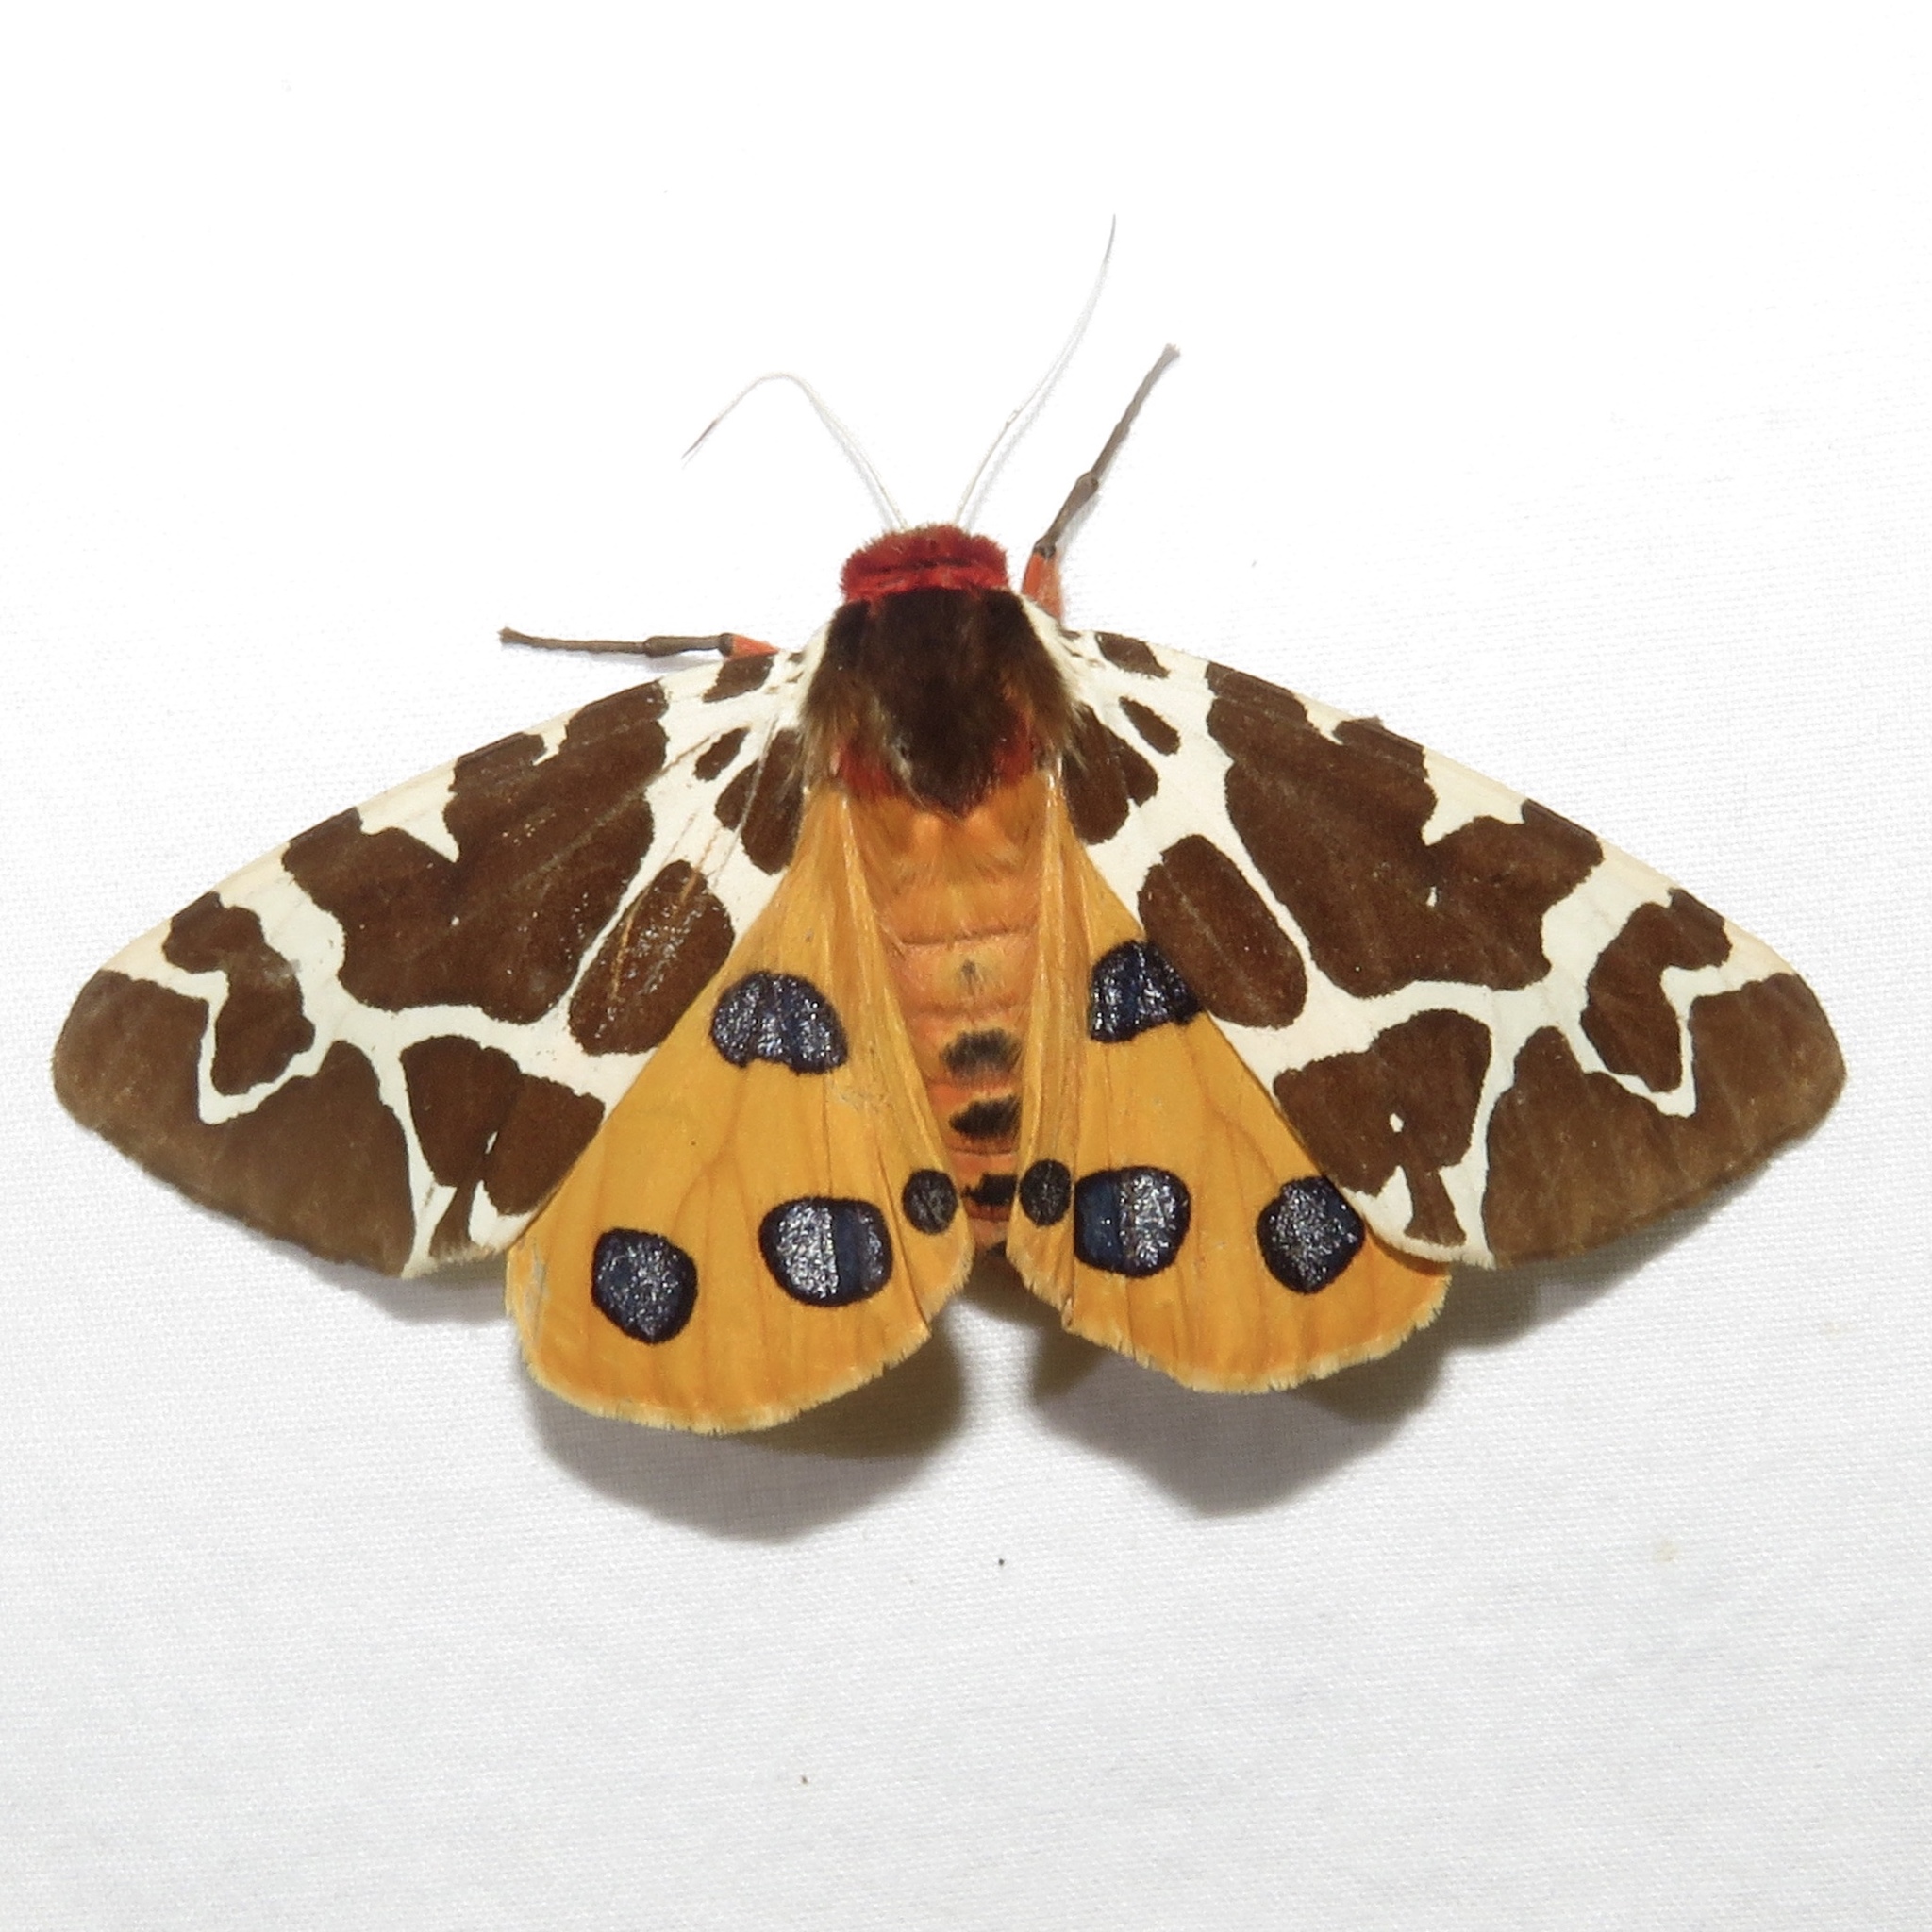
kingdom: Animalia
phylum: Arthropoda
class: Insecta
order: Lepidoptera
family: Erebidae
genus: Arctia
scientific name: Arctia caja
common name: Garden tiger
